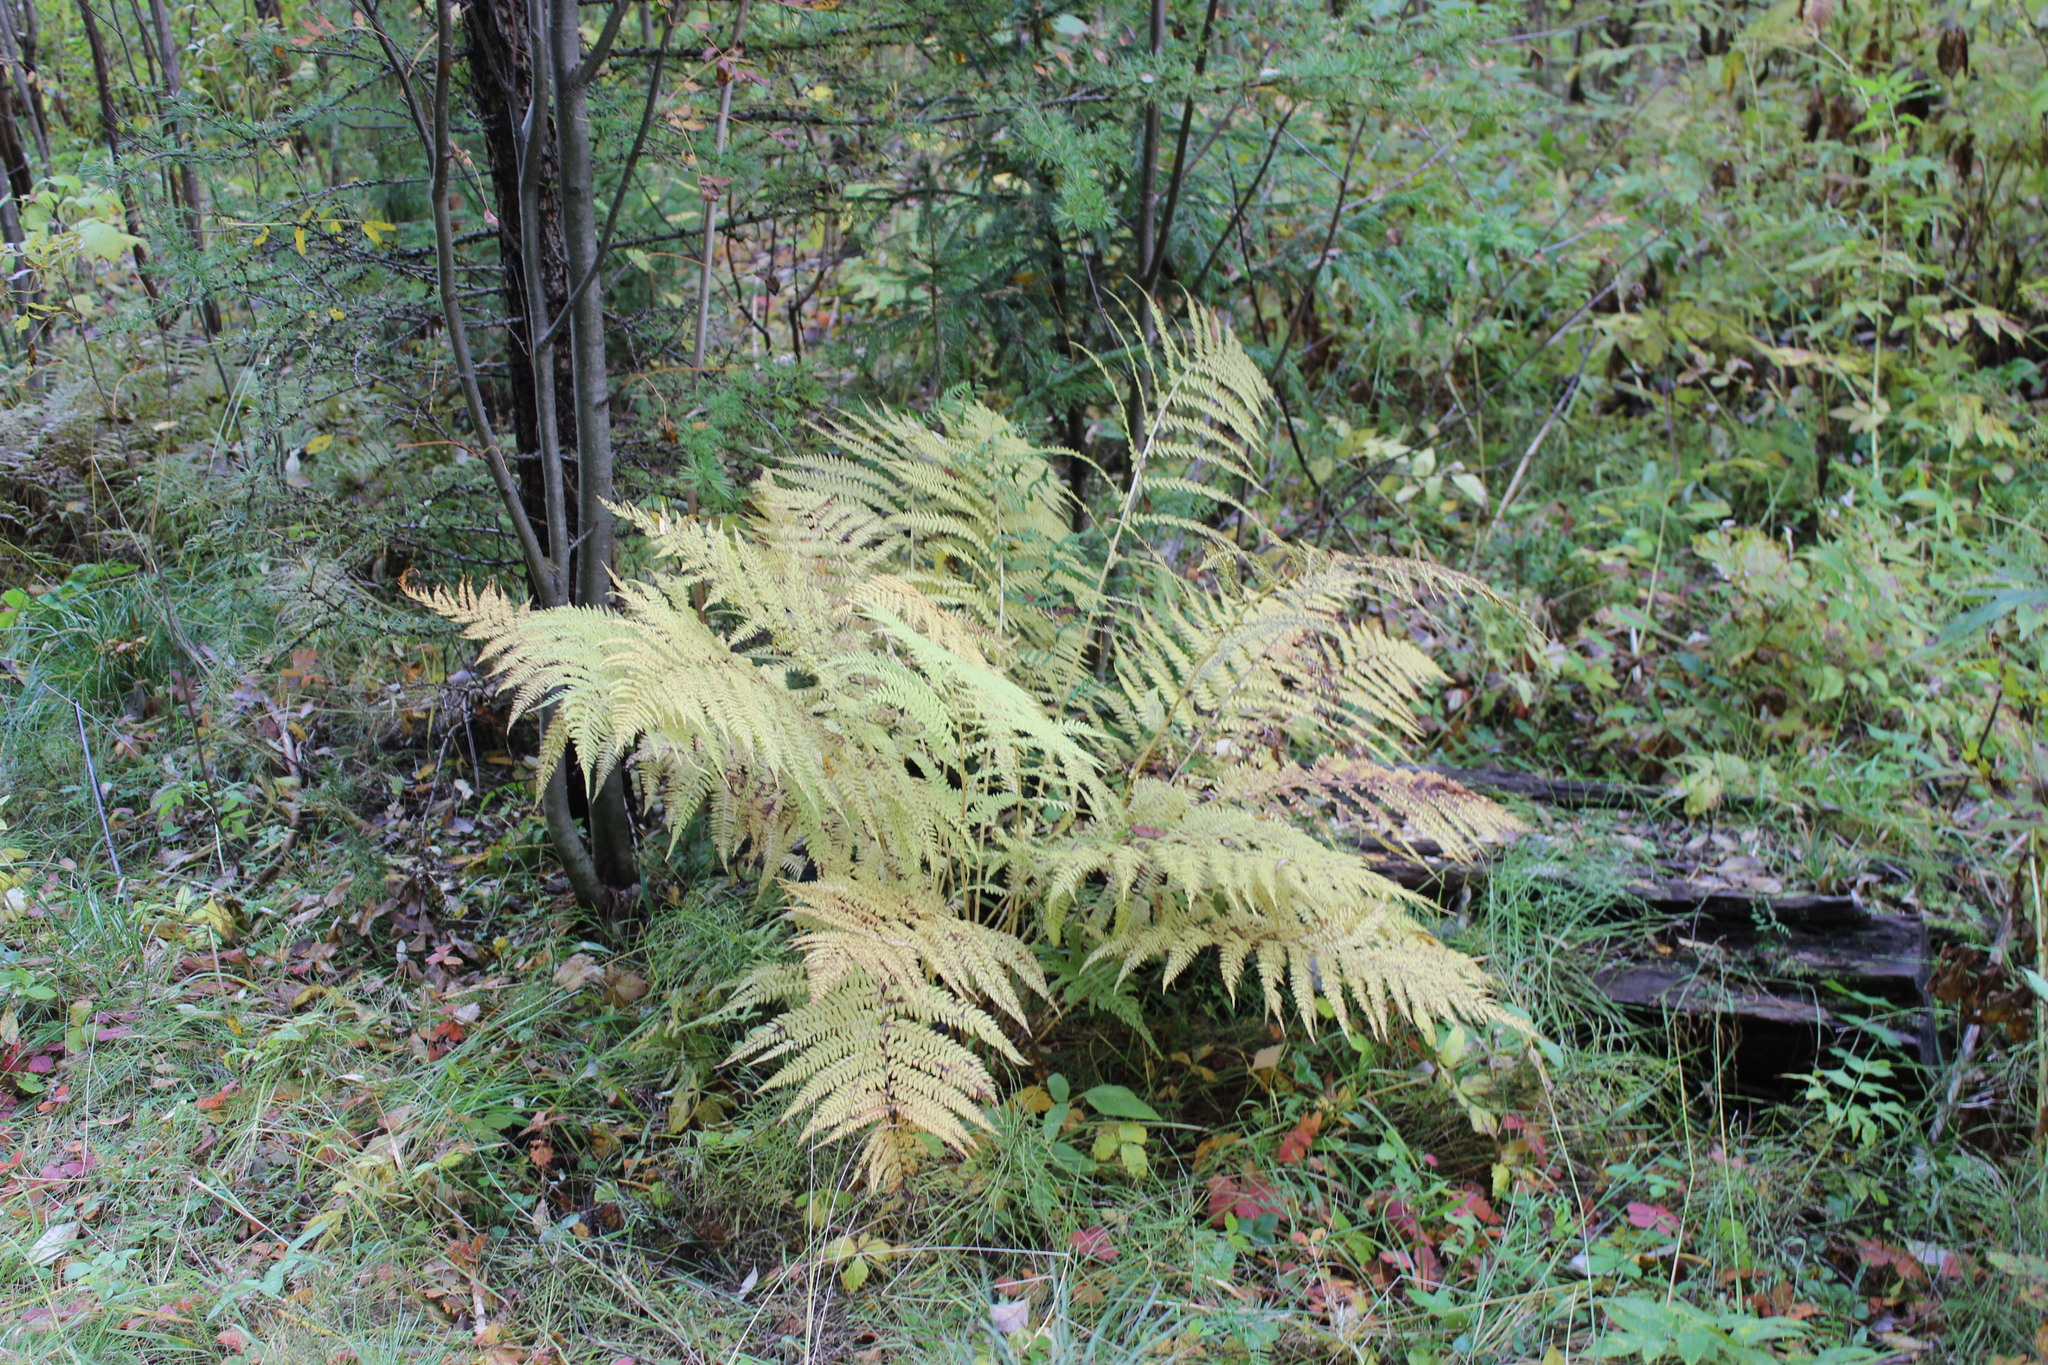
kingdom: Plantae
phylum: Tracheophyta
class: Polypodiopsida
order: Polypodiales
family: Athyriaceae
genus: Athyrium
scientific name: Athyrium filix-femina
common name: Lady fern
